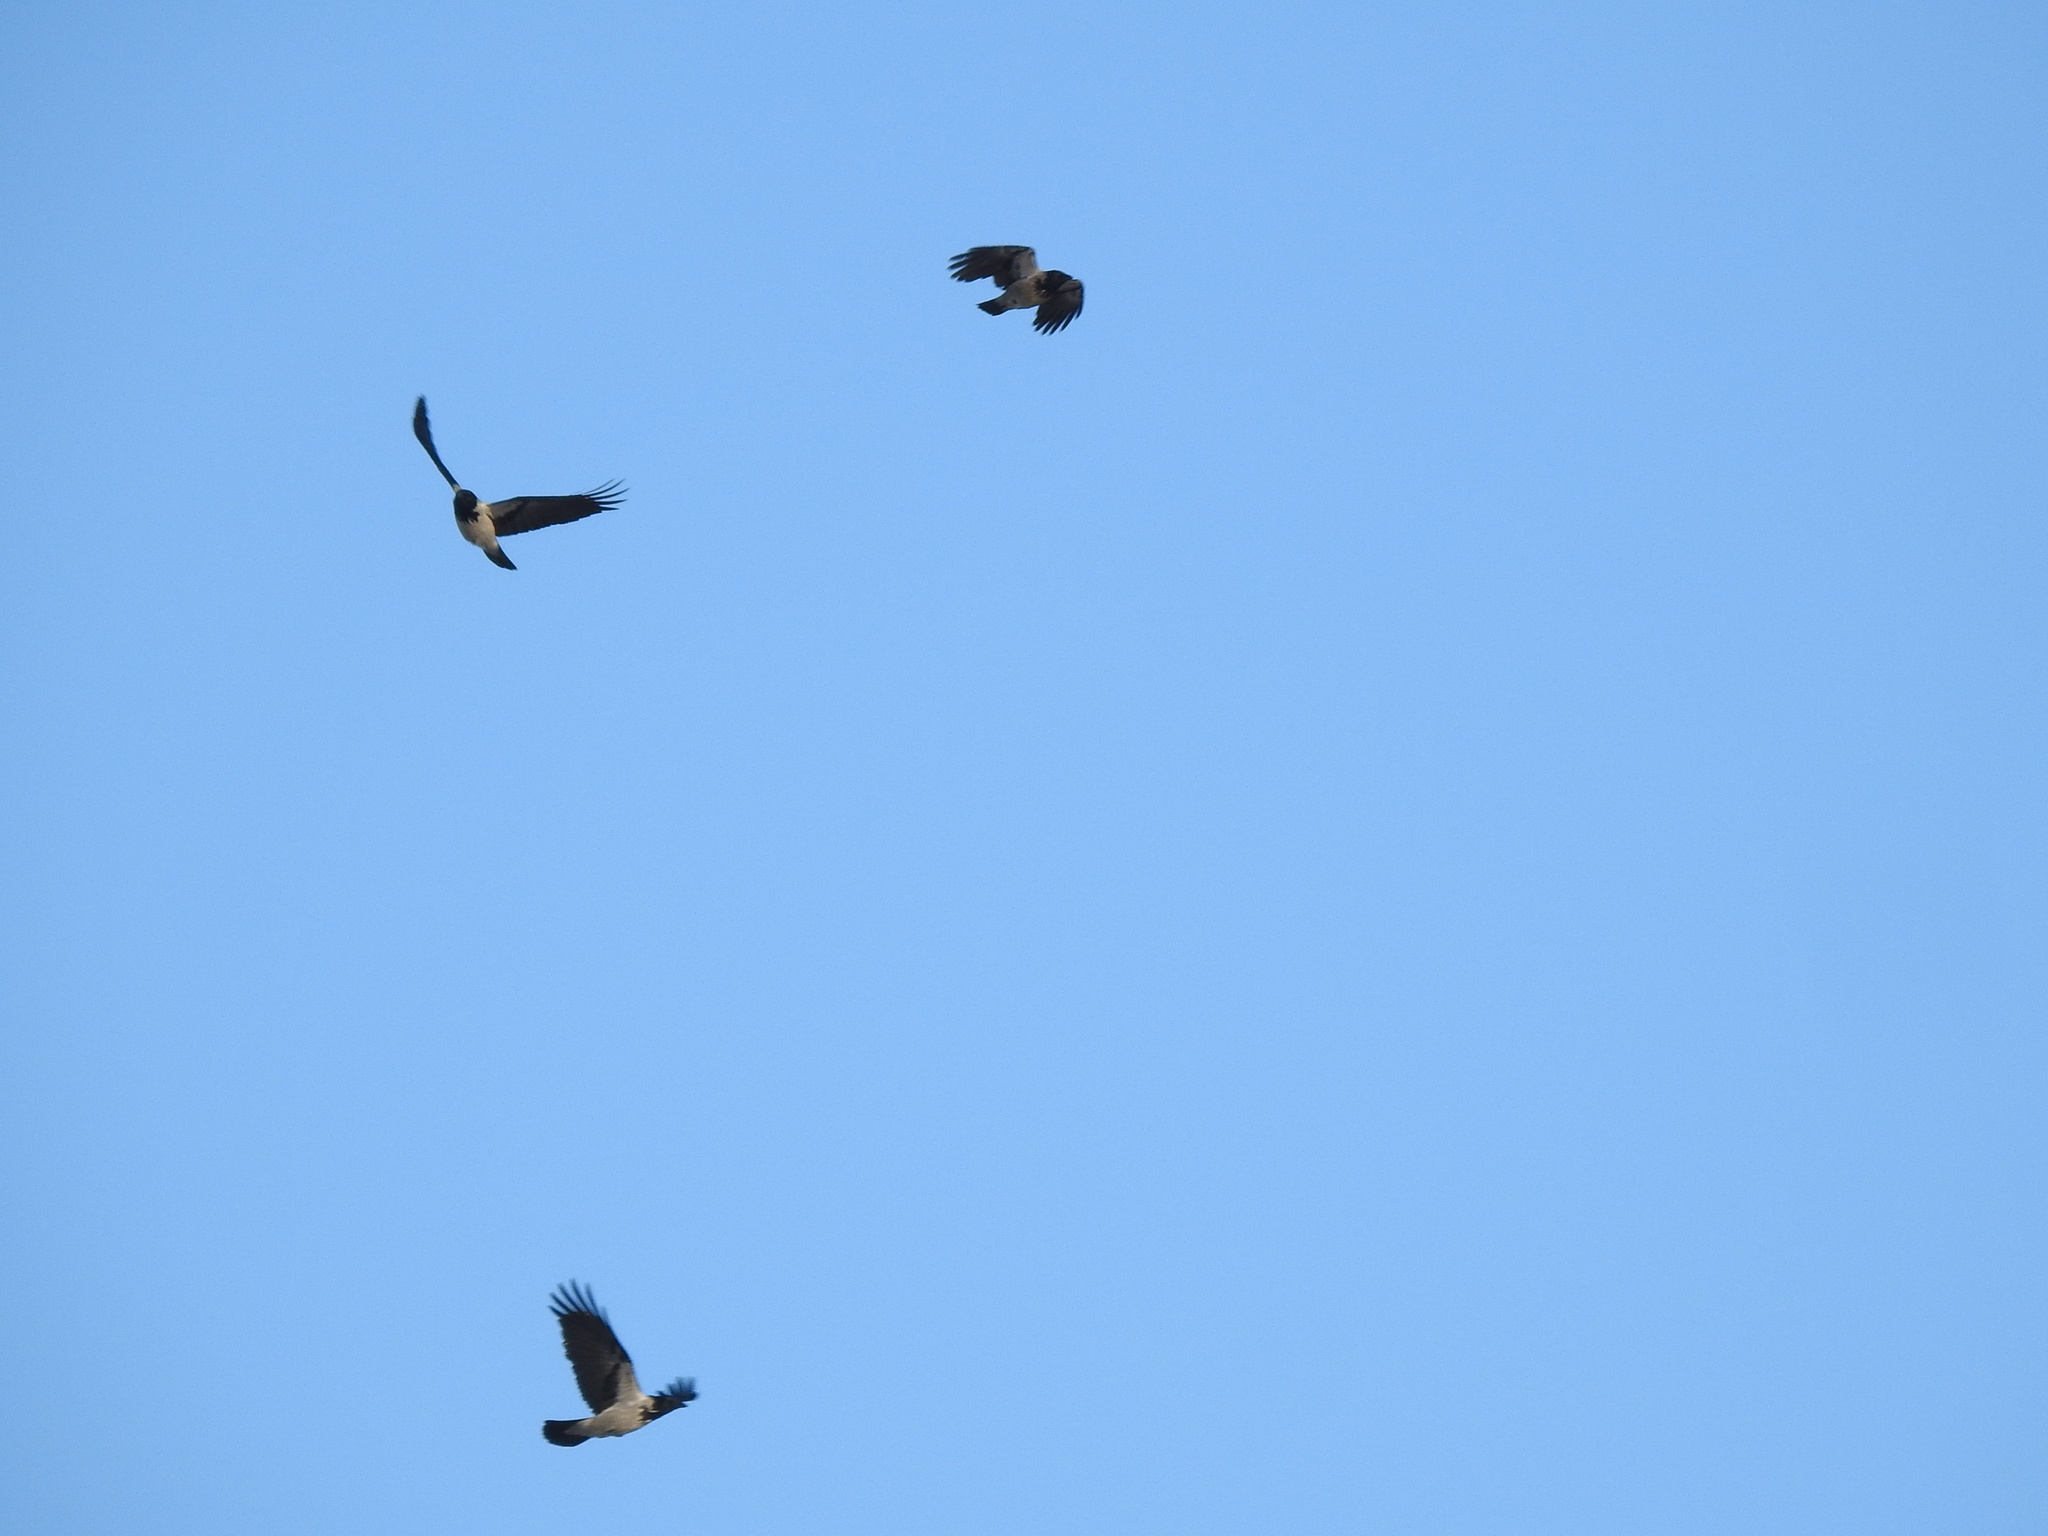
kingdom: Animalia
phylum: Chordata
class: Aves
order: Passeriformes
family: Corvidae
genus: Corvus
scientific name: Corvus cornix
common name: Hooded crow
